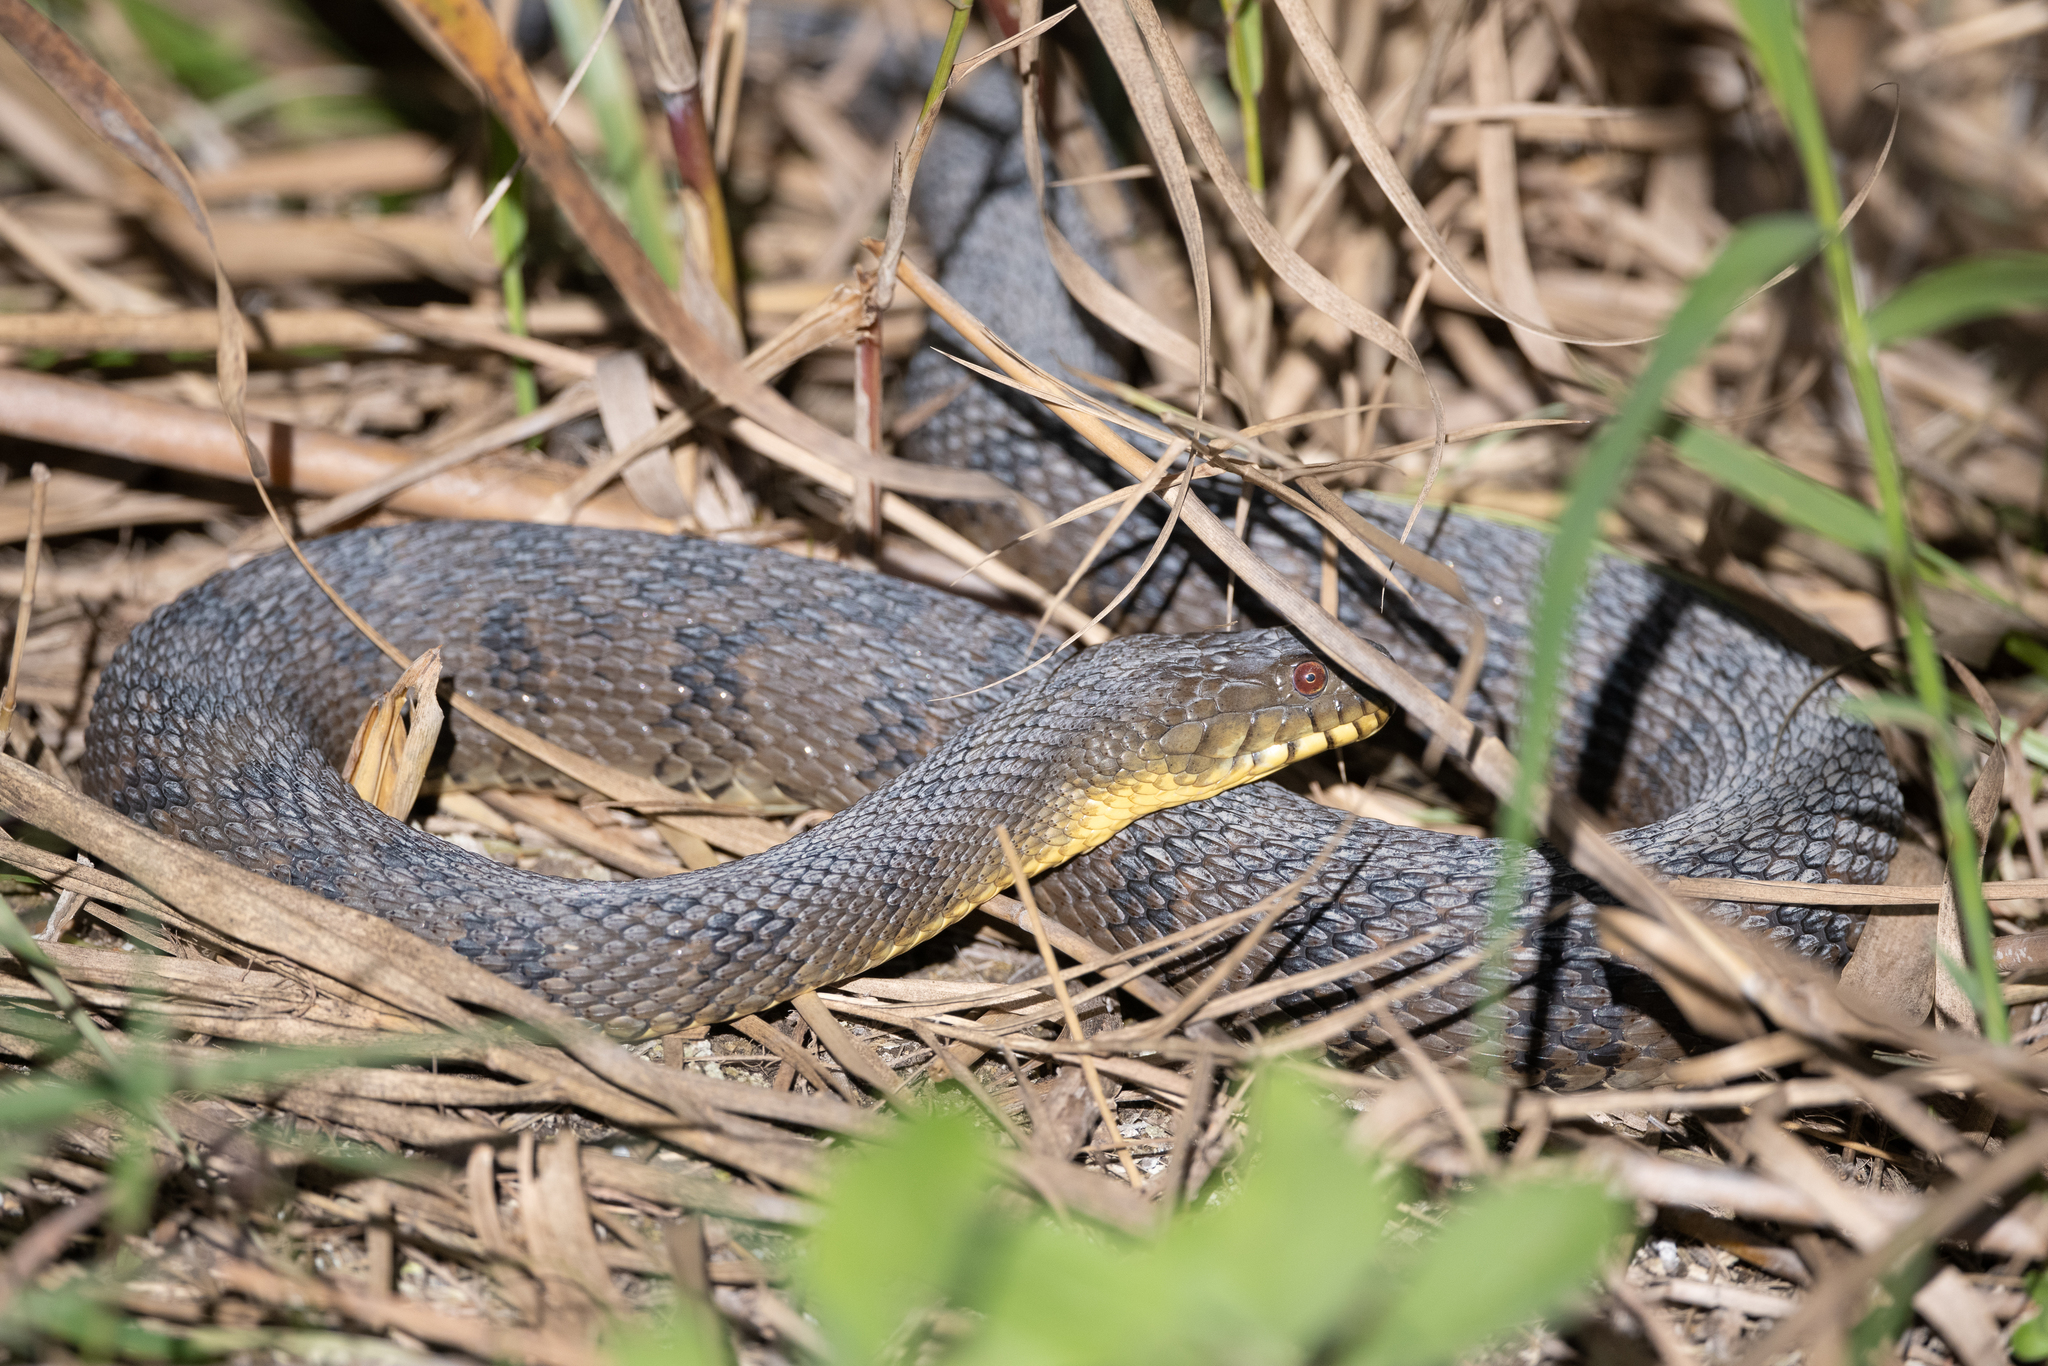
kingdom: Animalia
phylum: Chordata
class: Squamata
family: Colubridae
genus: Nerodia
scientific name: Nerodia rhombifer
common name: Diamondback water snake
